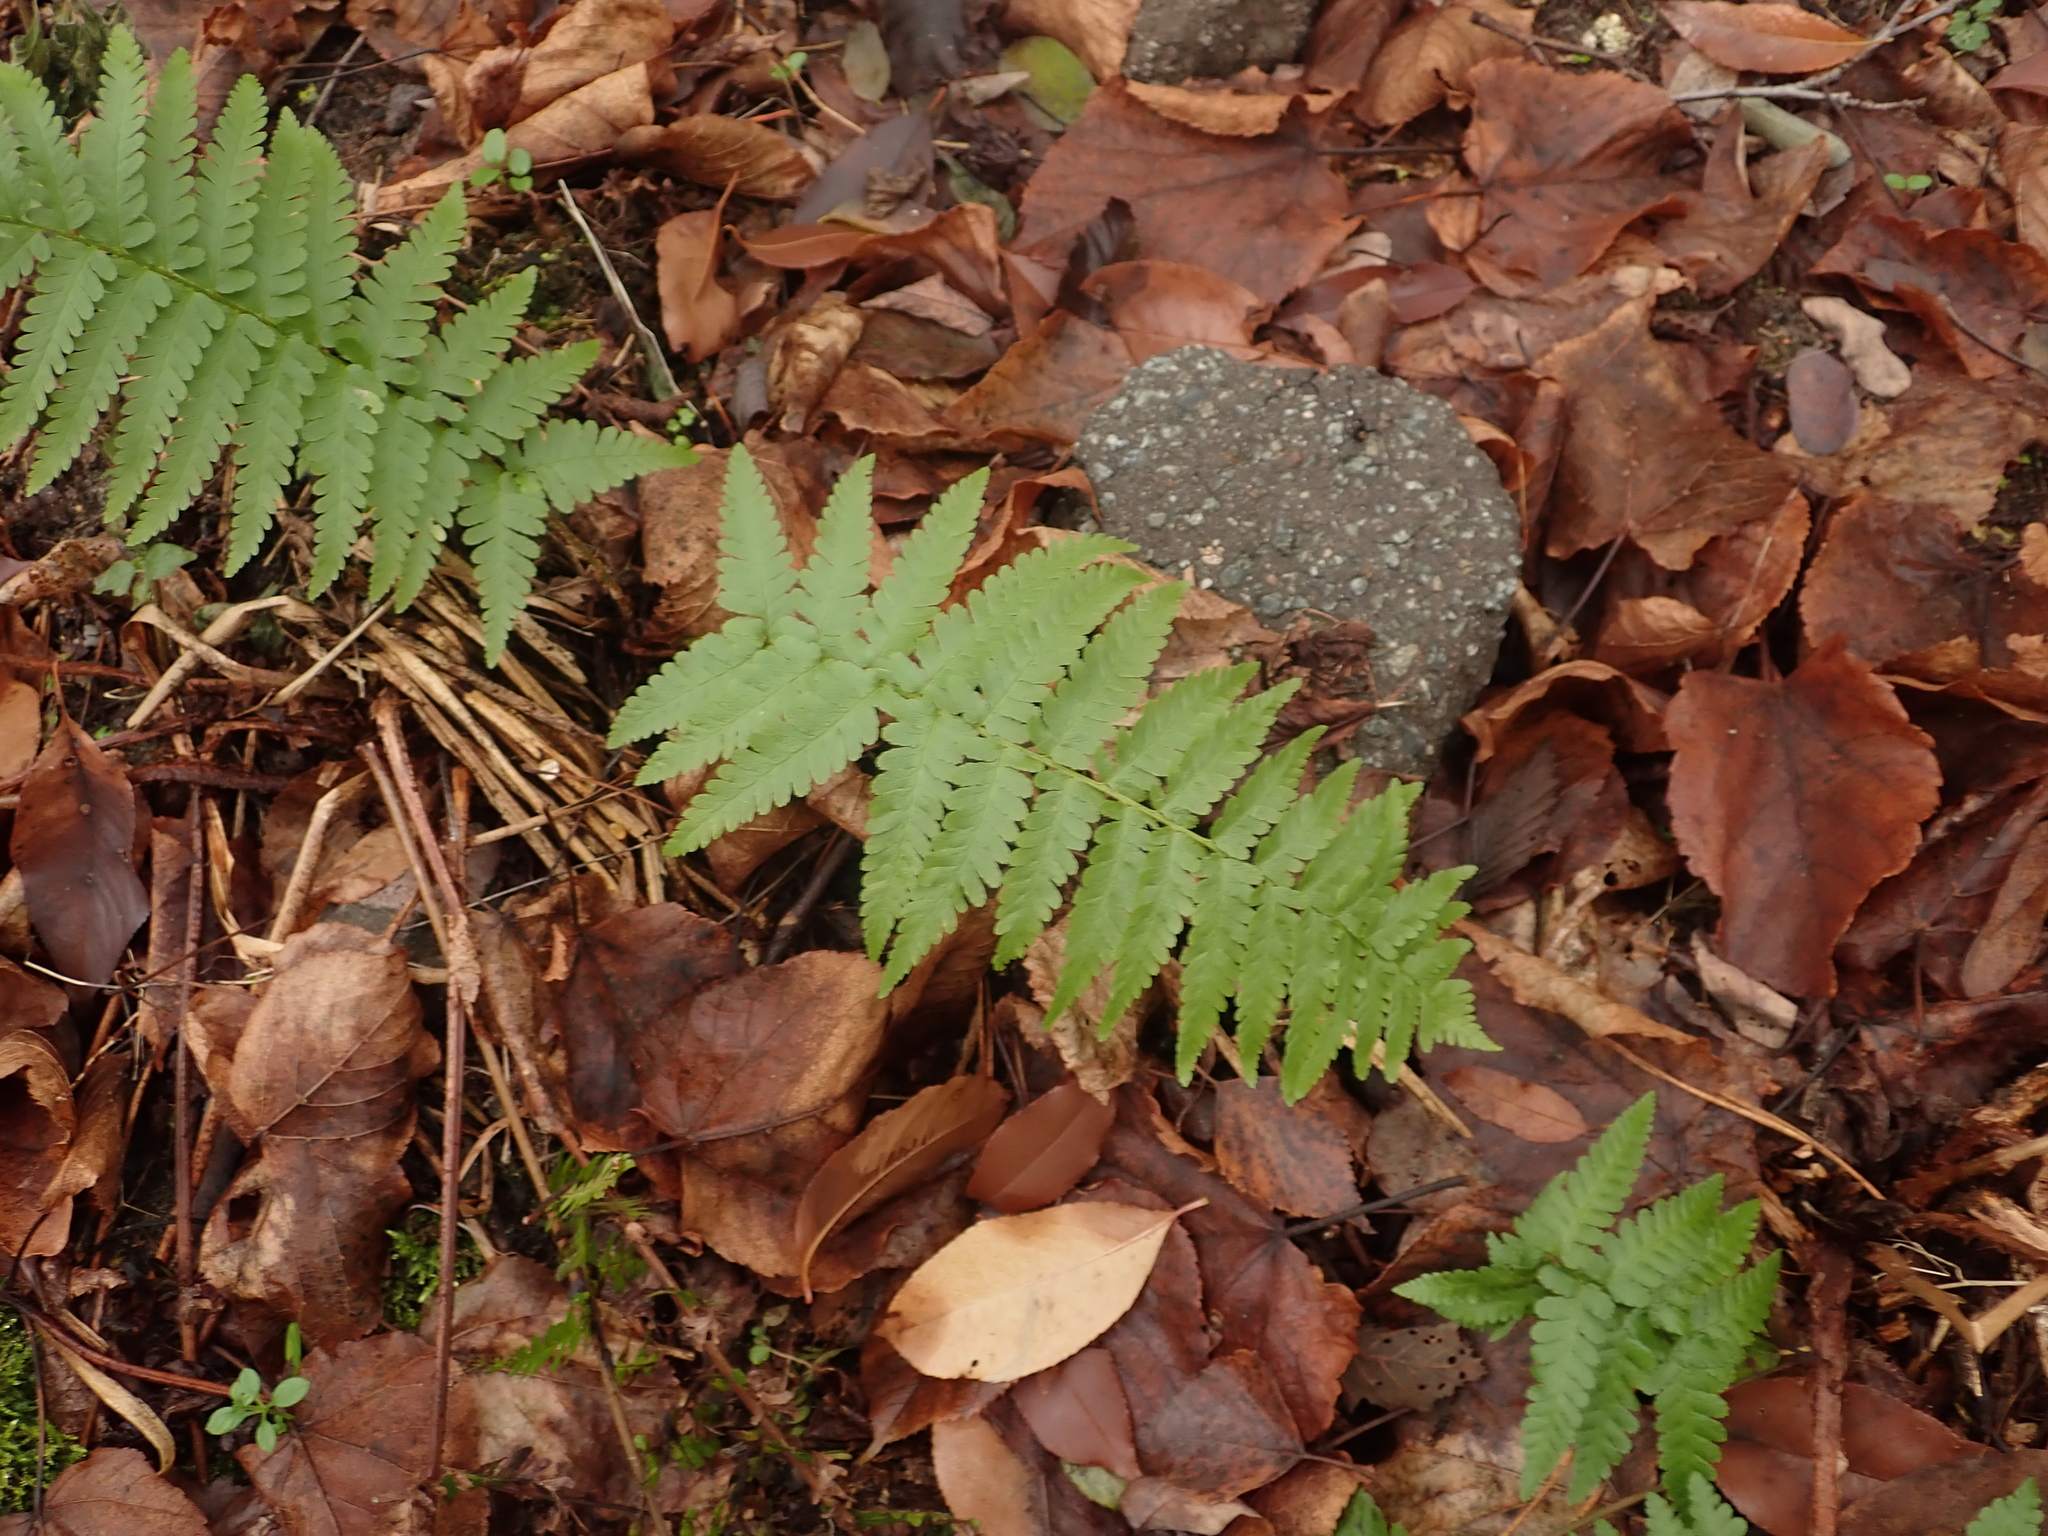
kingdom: Plantae
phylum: Tracheophyta
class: Polypodiopsida
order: Polypodiales
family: Dryopteridaceae
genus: Dryopteris
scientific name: Dryopteris filix-mas
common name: Male fern
